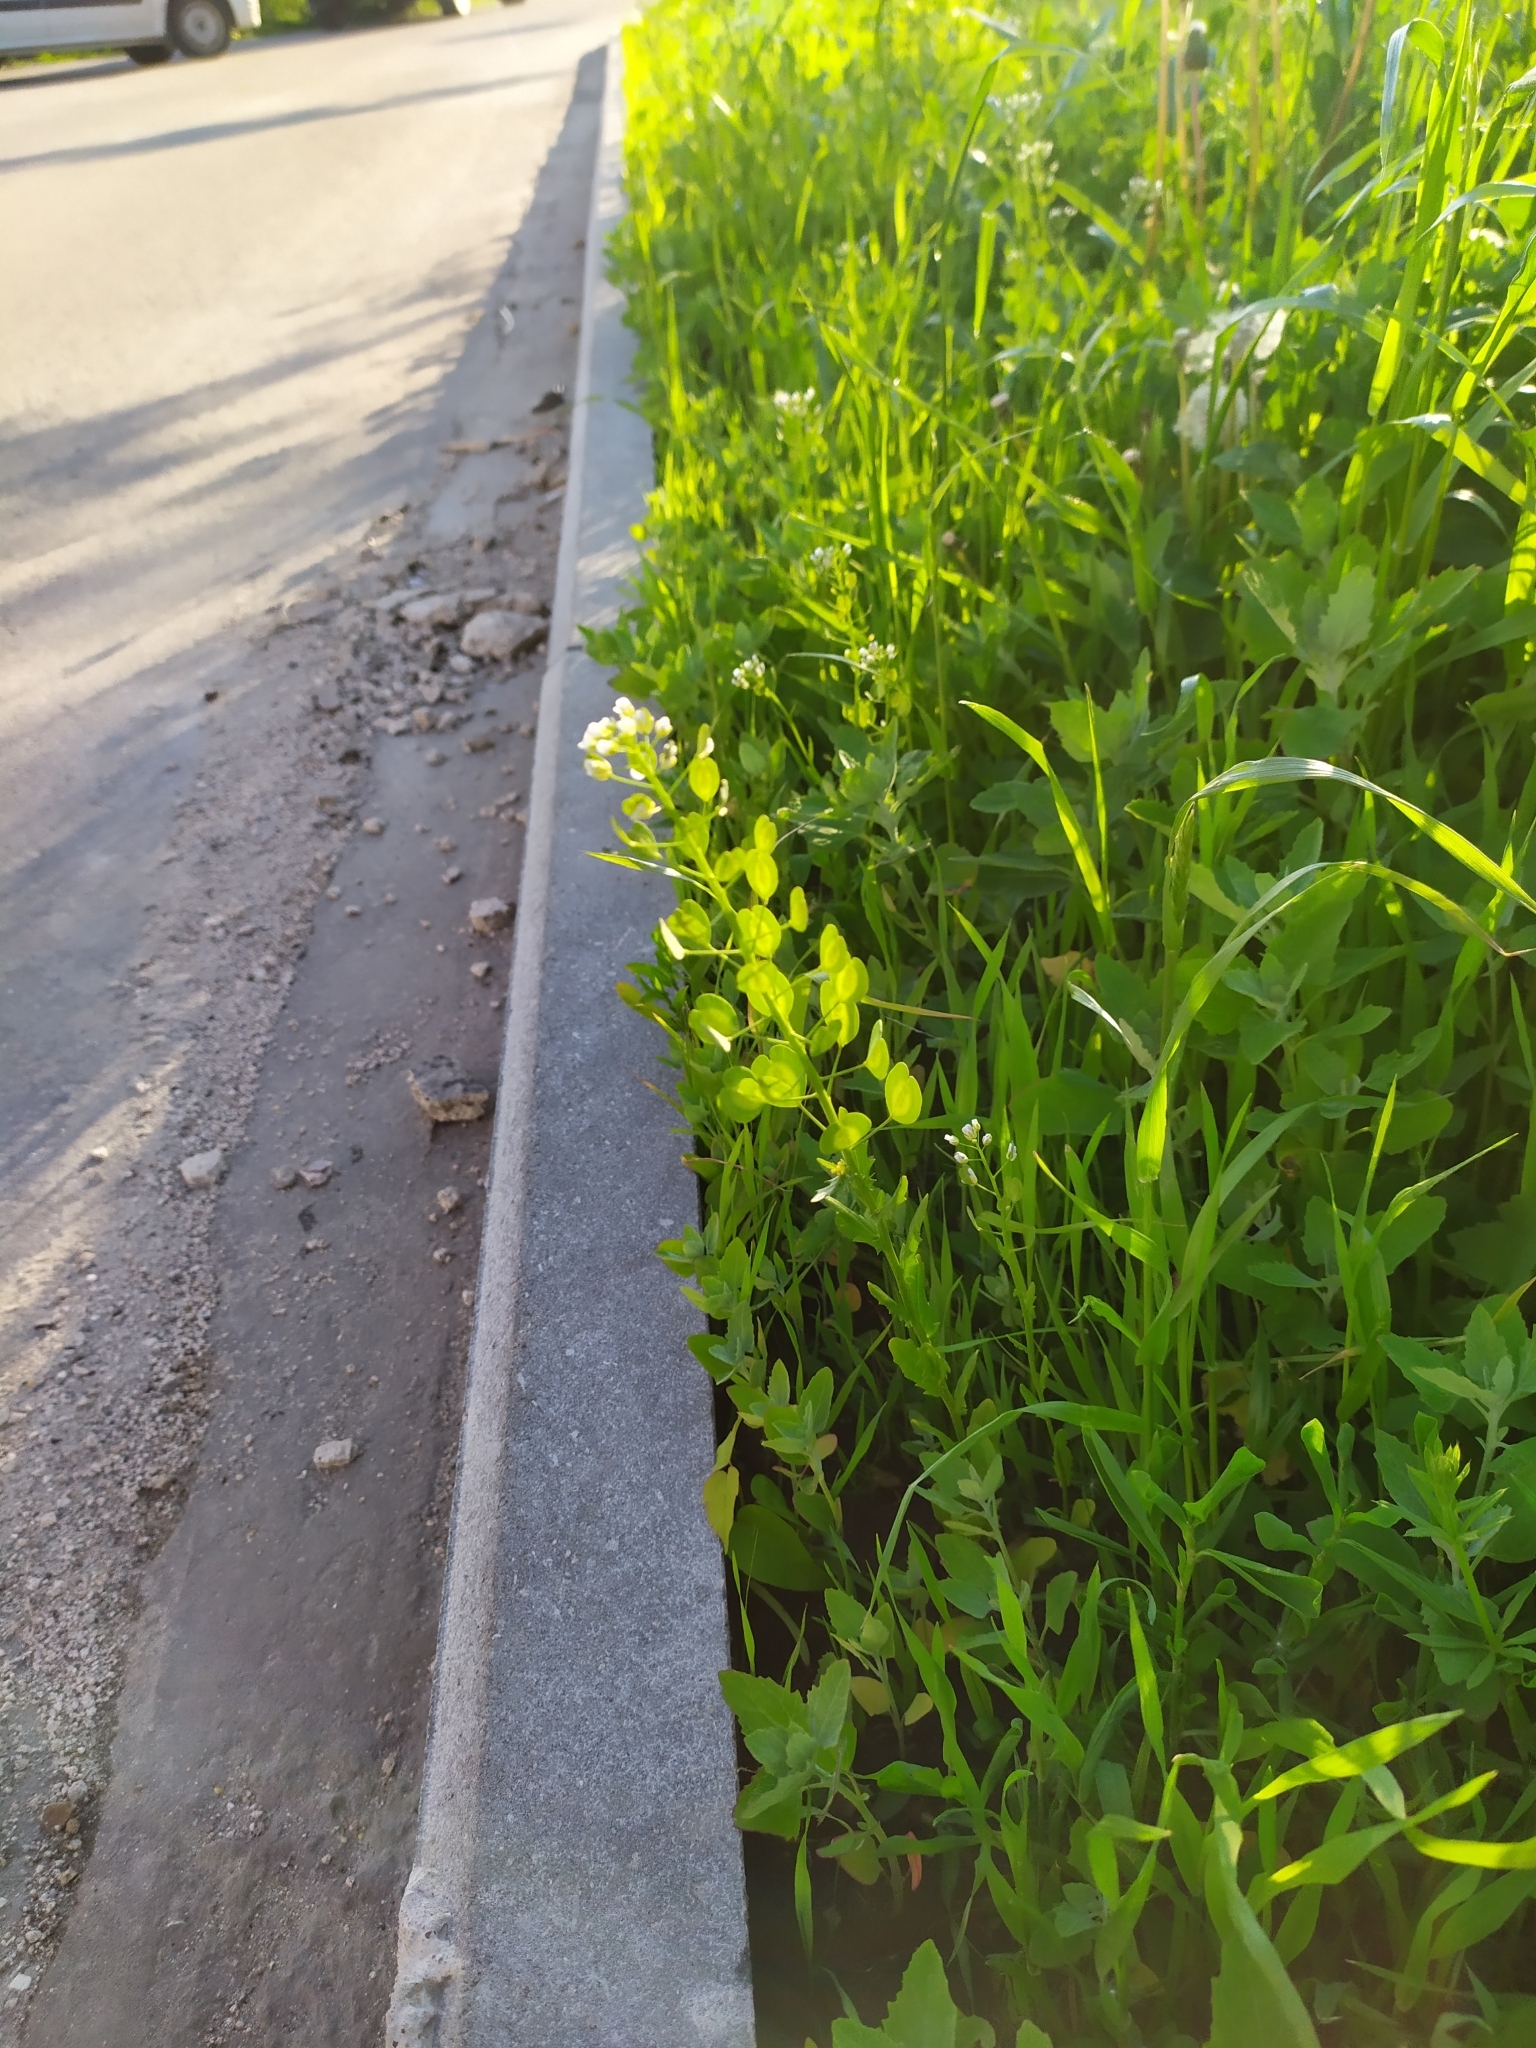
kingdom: Plantae
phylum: Tracheophyta
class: Magnoliopsida
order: Brassicales
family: Brassicaceae
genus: Thlaspi
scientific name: Thlaspi arvense
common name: Field pennycress
